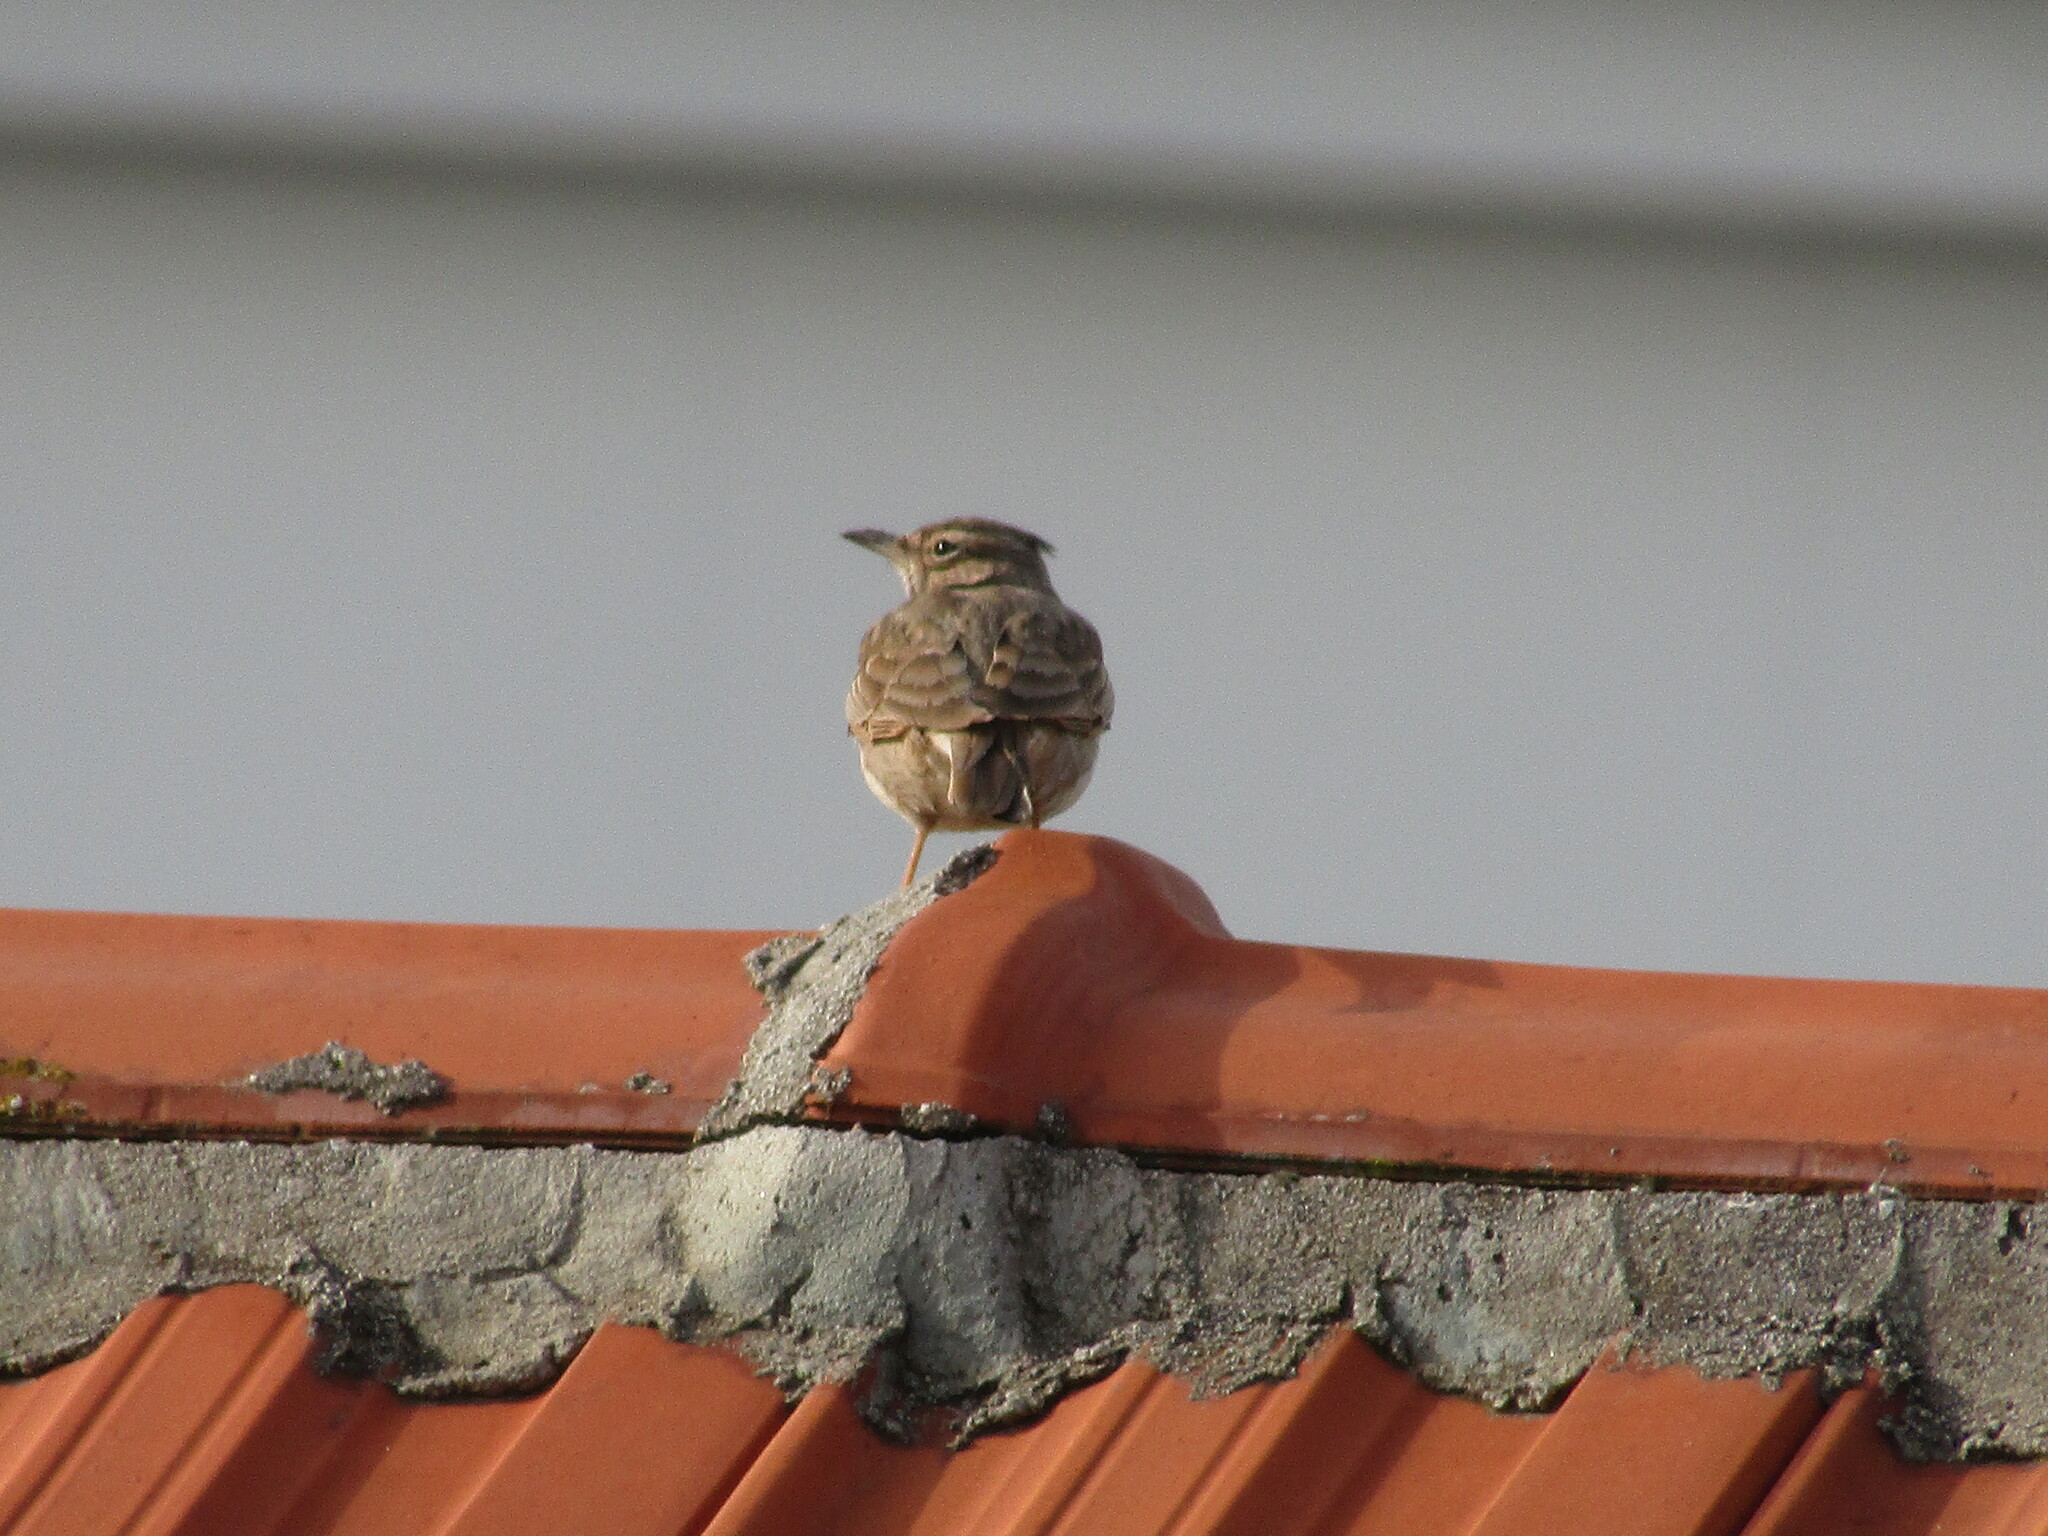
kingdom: Animalia
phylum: Chordata
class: Aves
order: Passeriformes
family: Alaudidae
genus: Galerida
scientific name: Galerida cristata
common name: Crested lark
